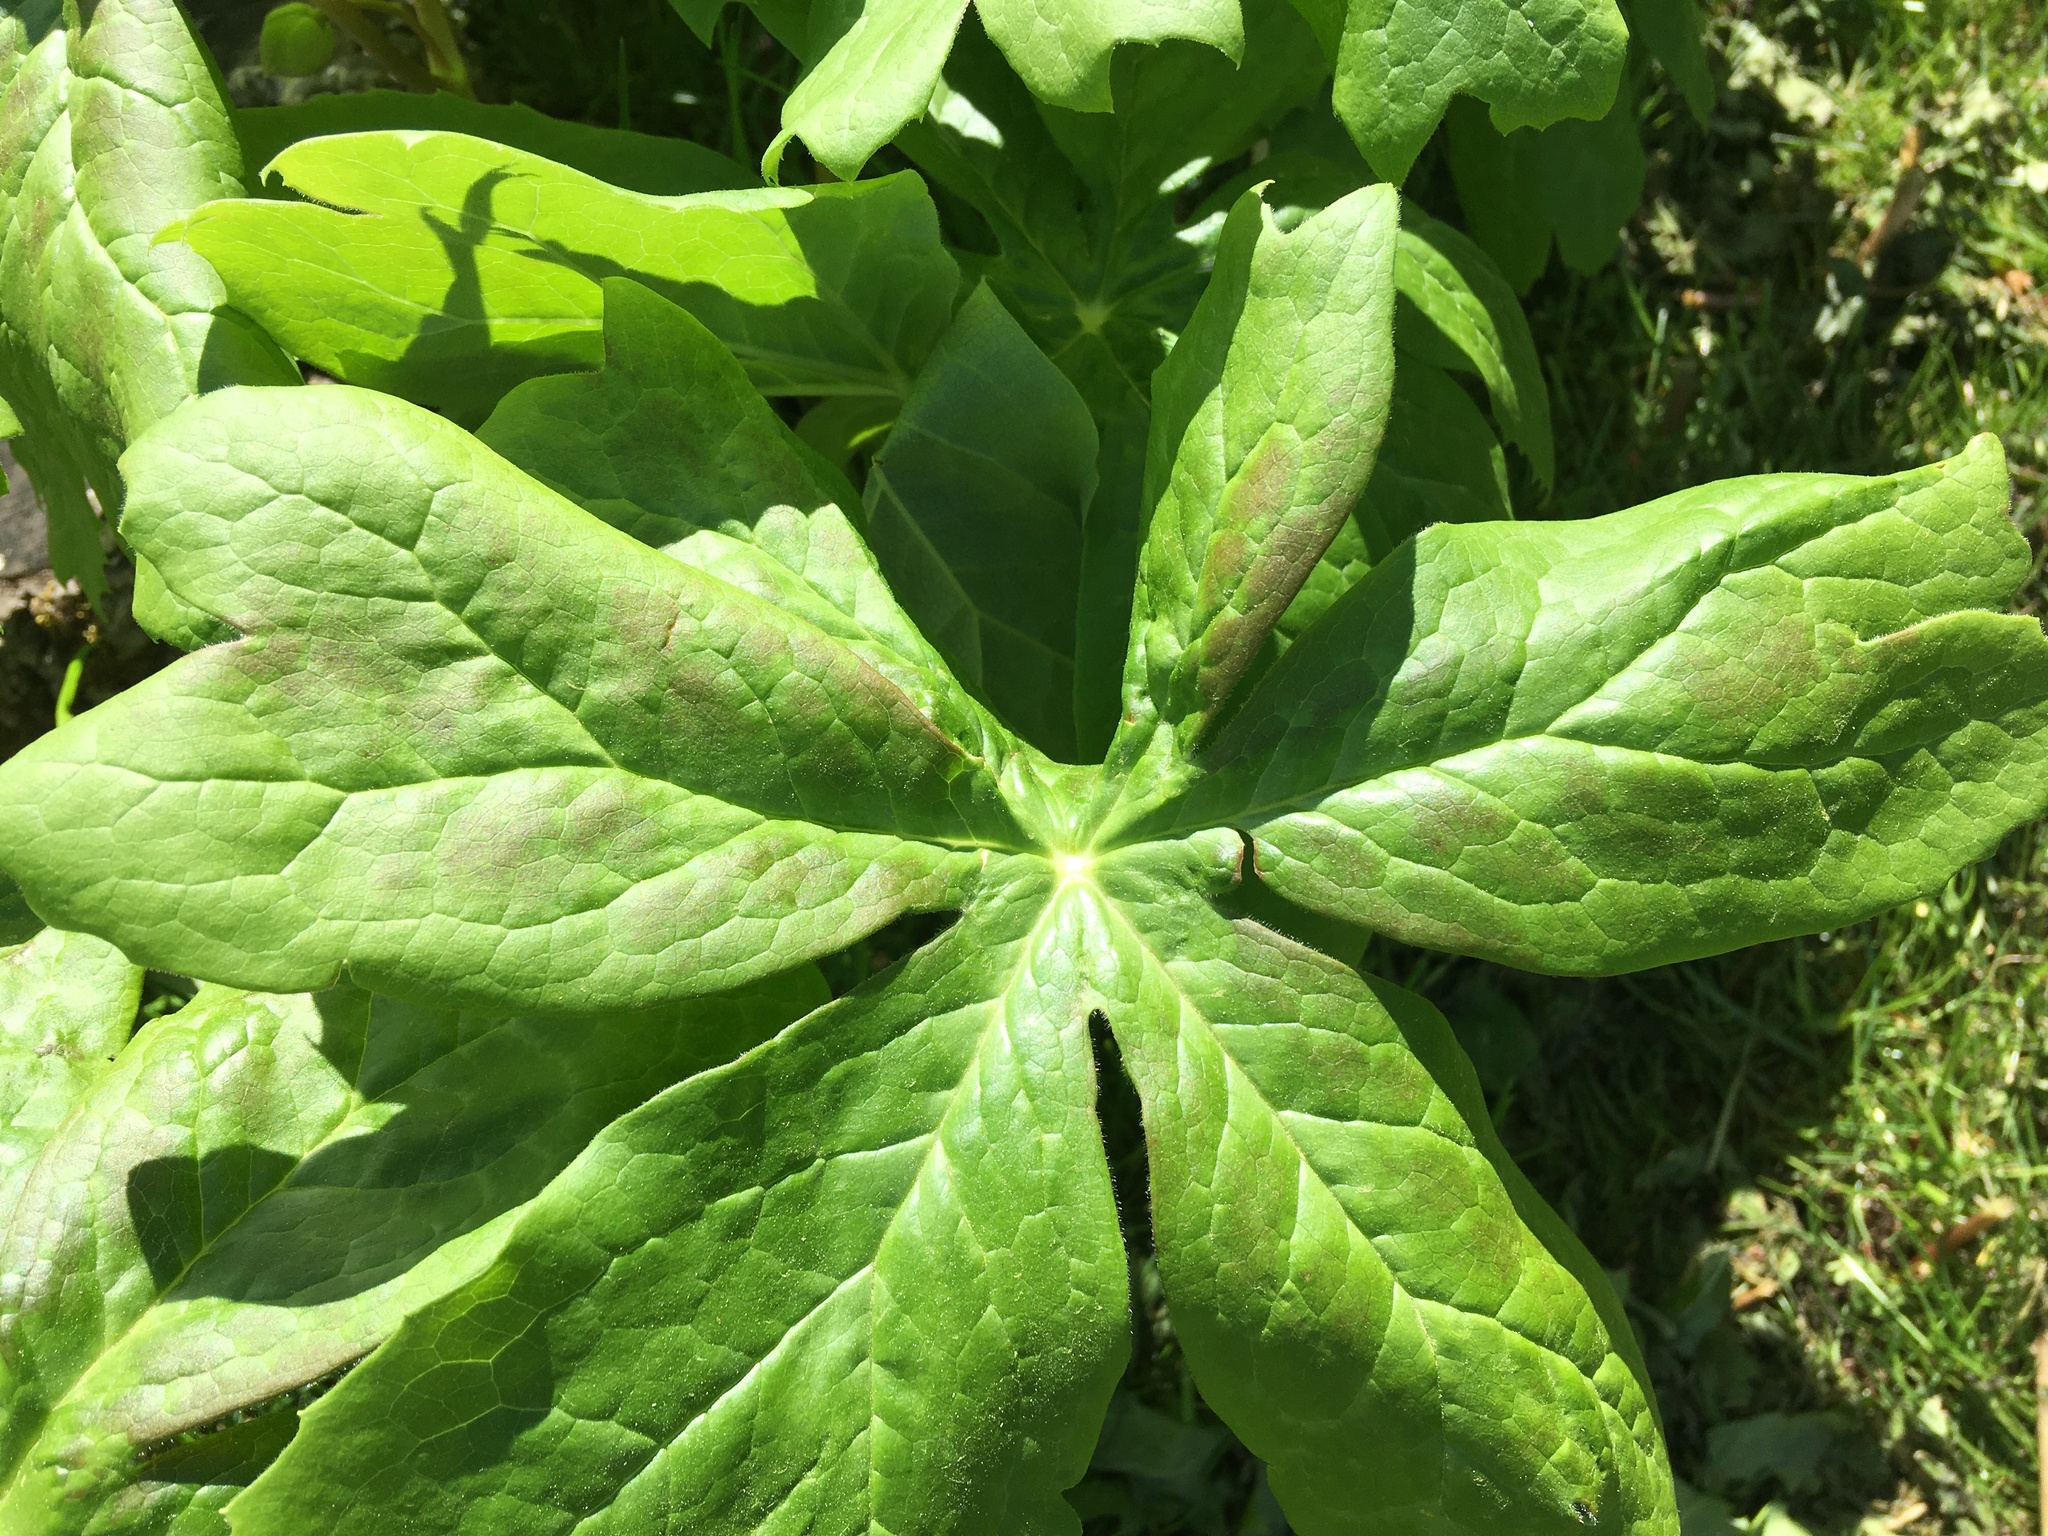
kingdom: Plantae
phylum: Tracheophyta
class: Magnoliopsida
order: Ranunculales
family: Berberidaceae
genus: Podophyllum
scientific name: Podophyllum peltatum
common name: Wild mandrake
